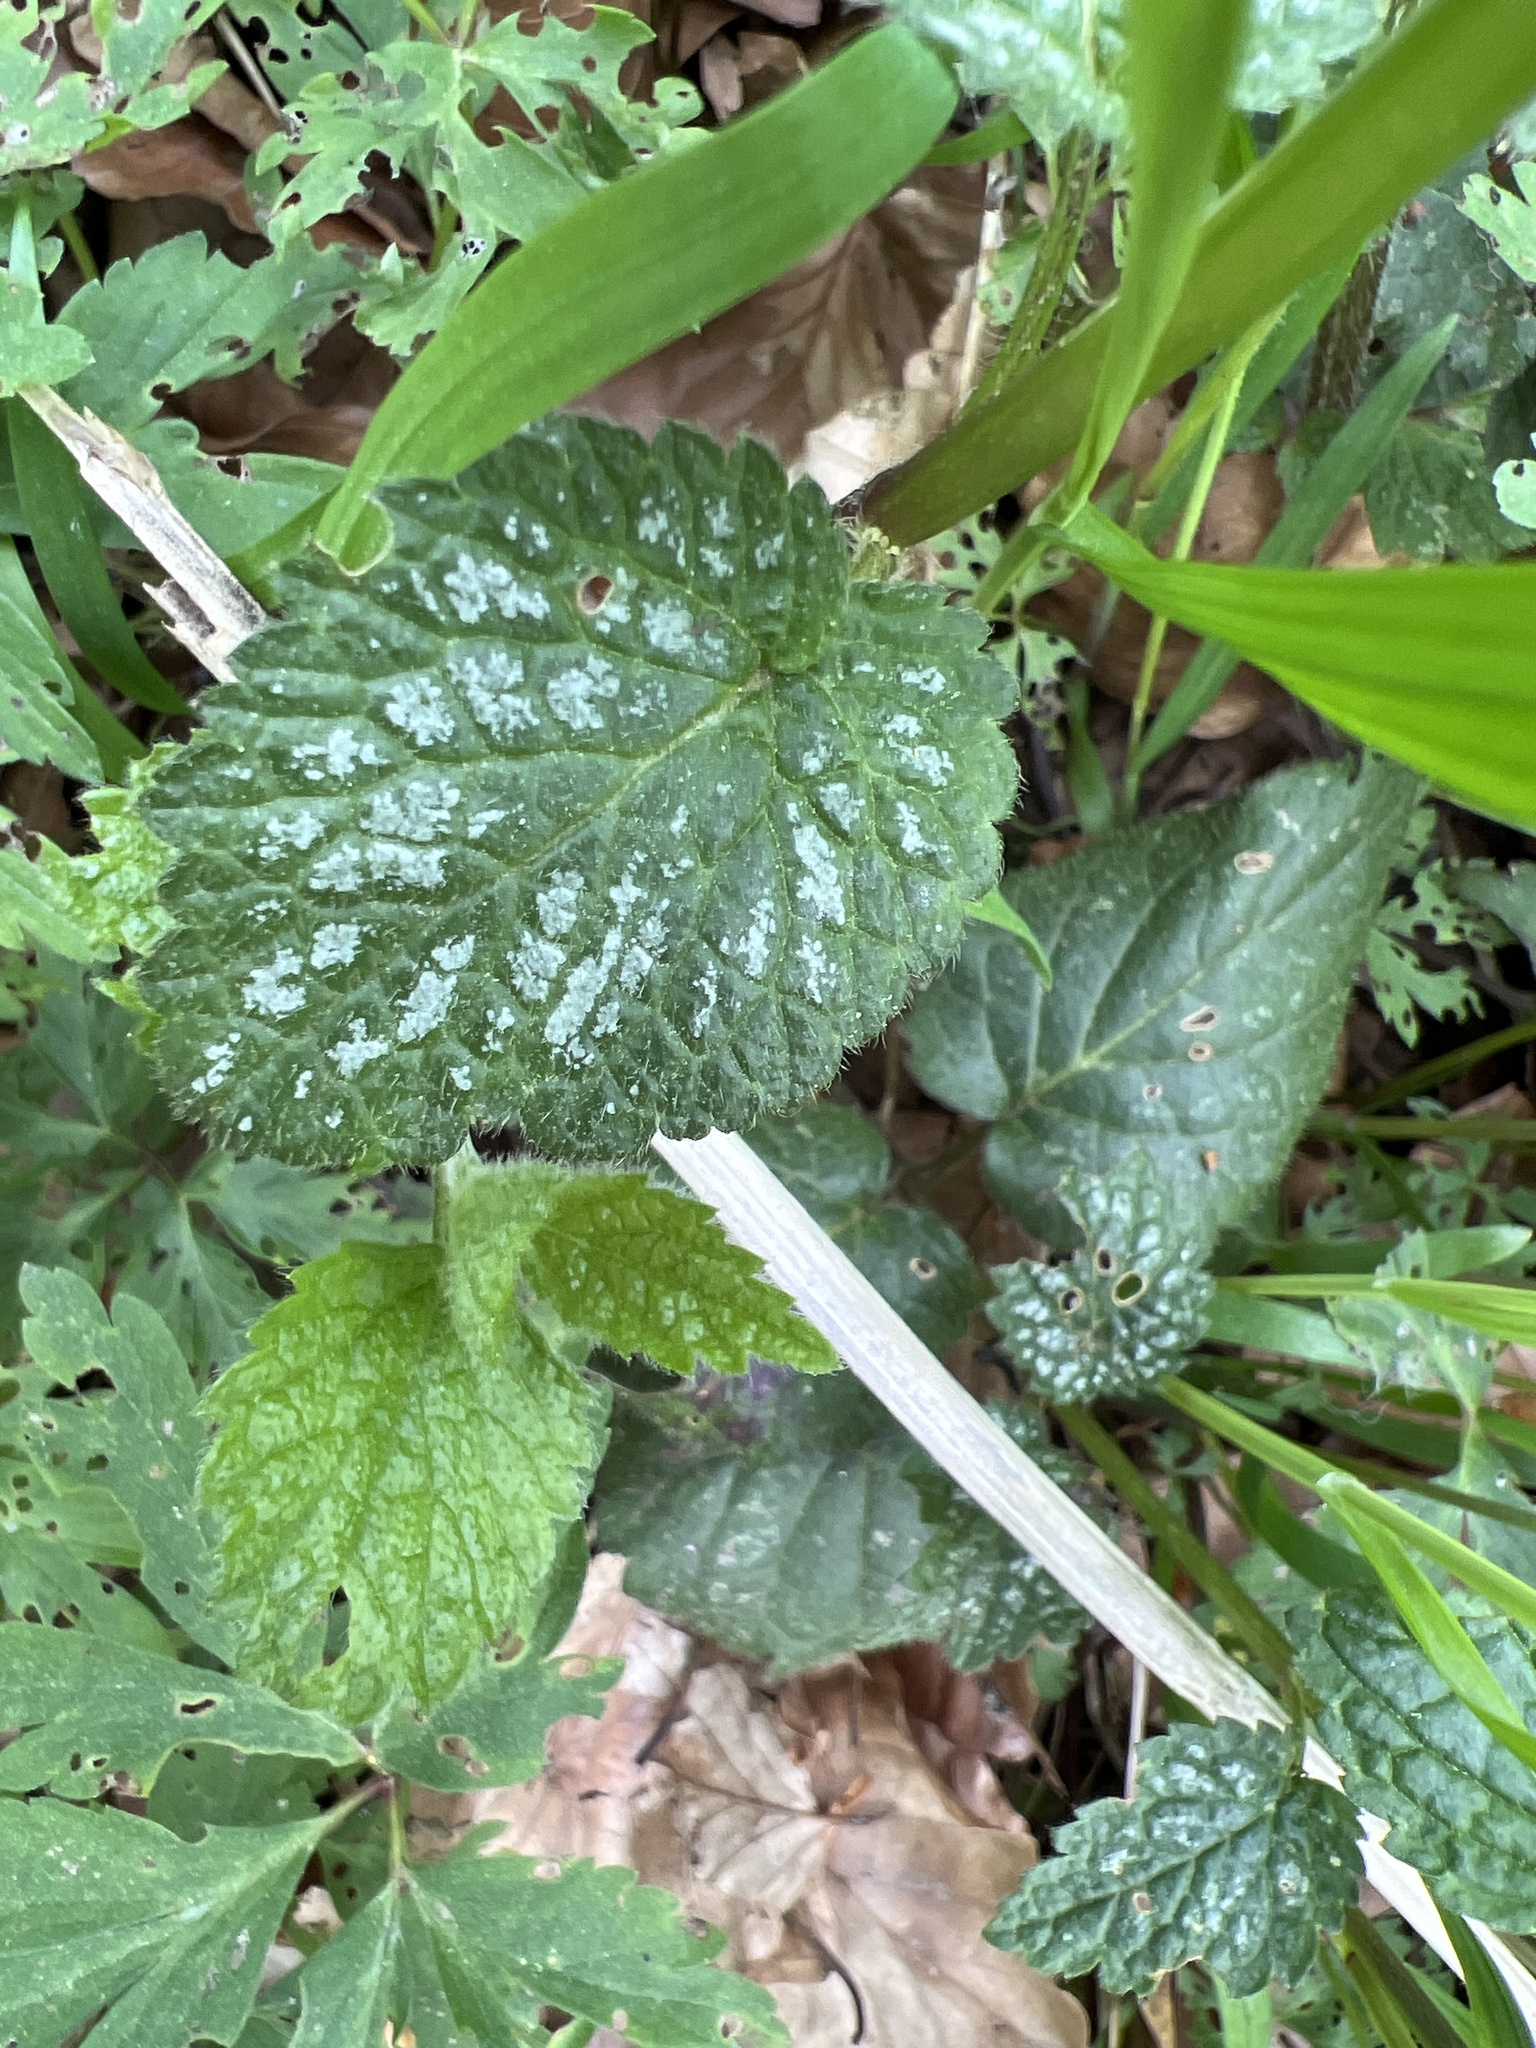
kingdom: Plantae
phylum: Tracheophyta
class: Magnoliopsida
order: Lamiales
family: Lamiaceae
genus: Lamium
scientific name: Lamium galeobdolon
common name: Yellow archangel
